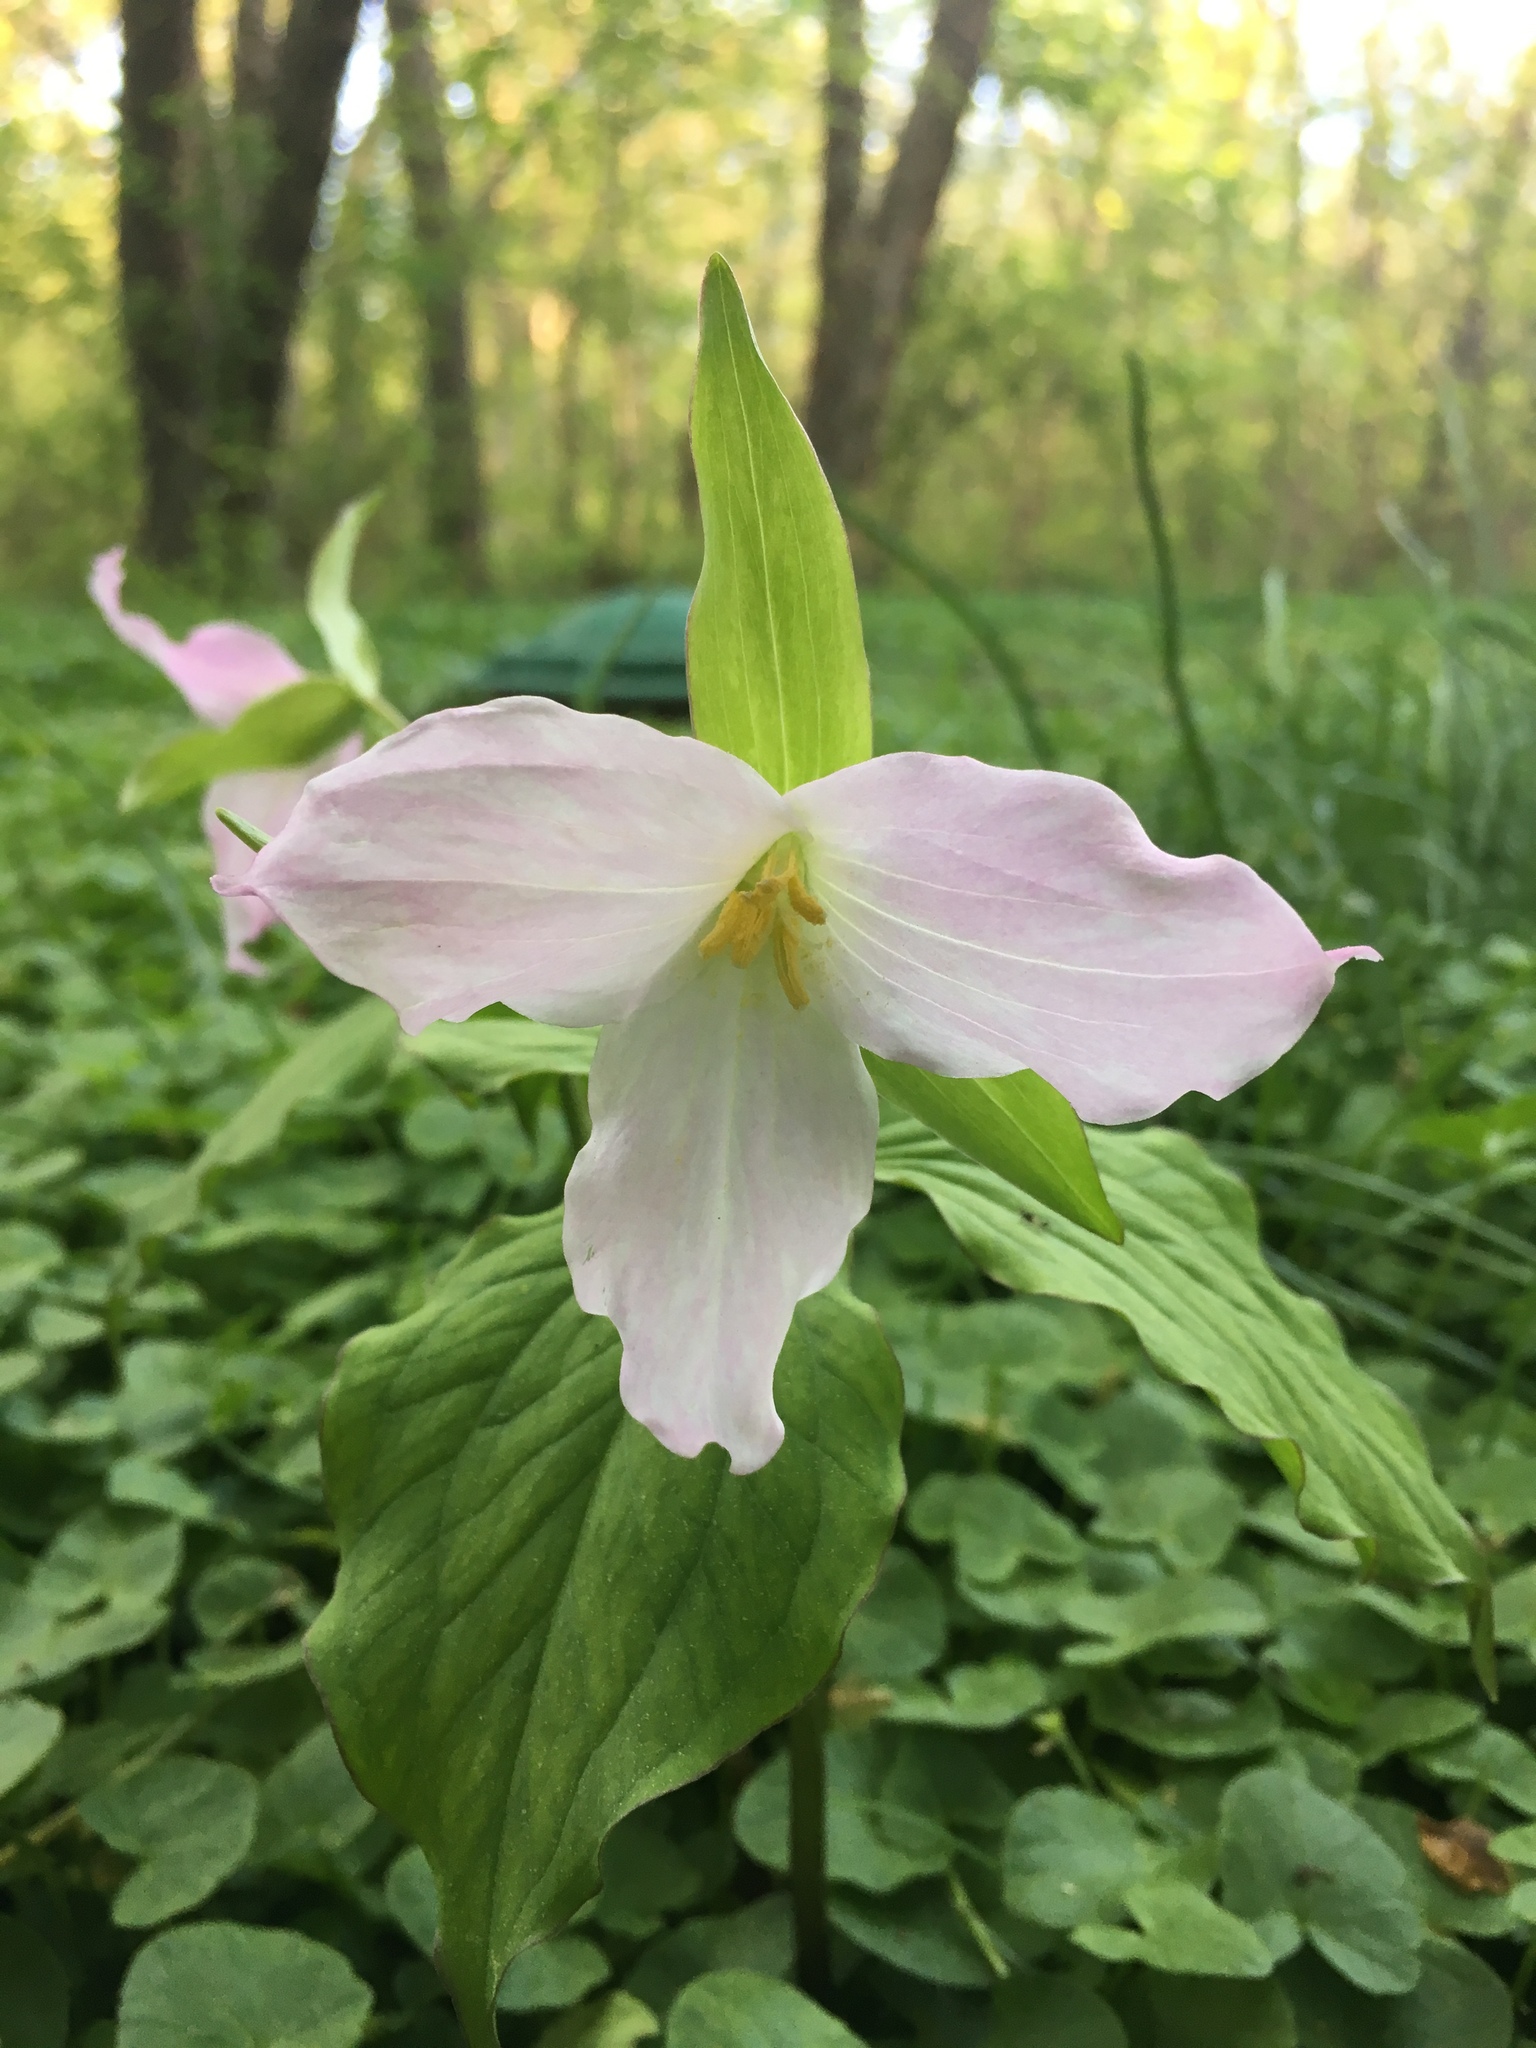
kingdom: Plantae
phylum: Tracheophyta
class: Liliopsida
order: Liliales
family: Melanthiaceae
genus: Trillium
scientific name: Trillium grandiflorum
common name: Great white trillium
